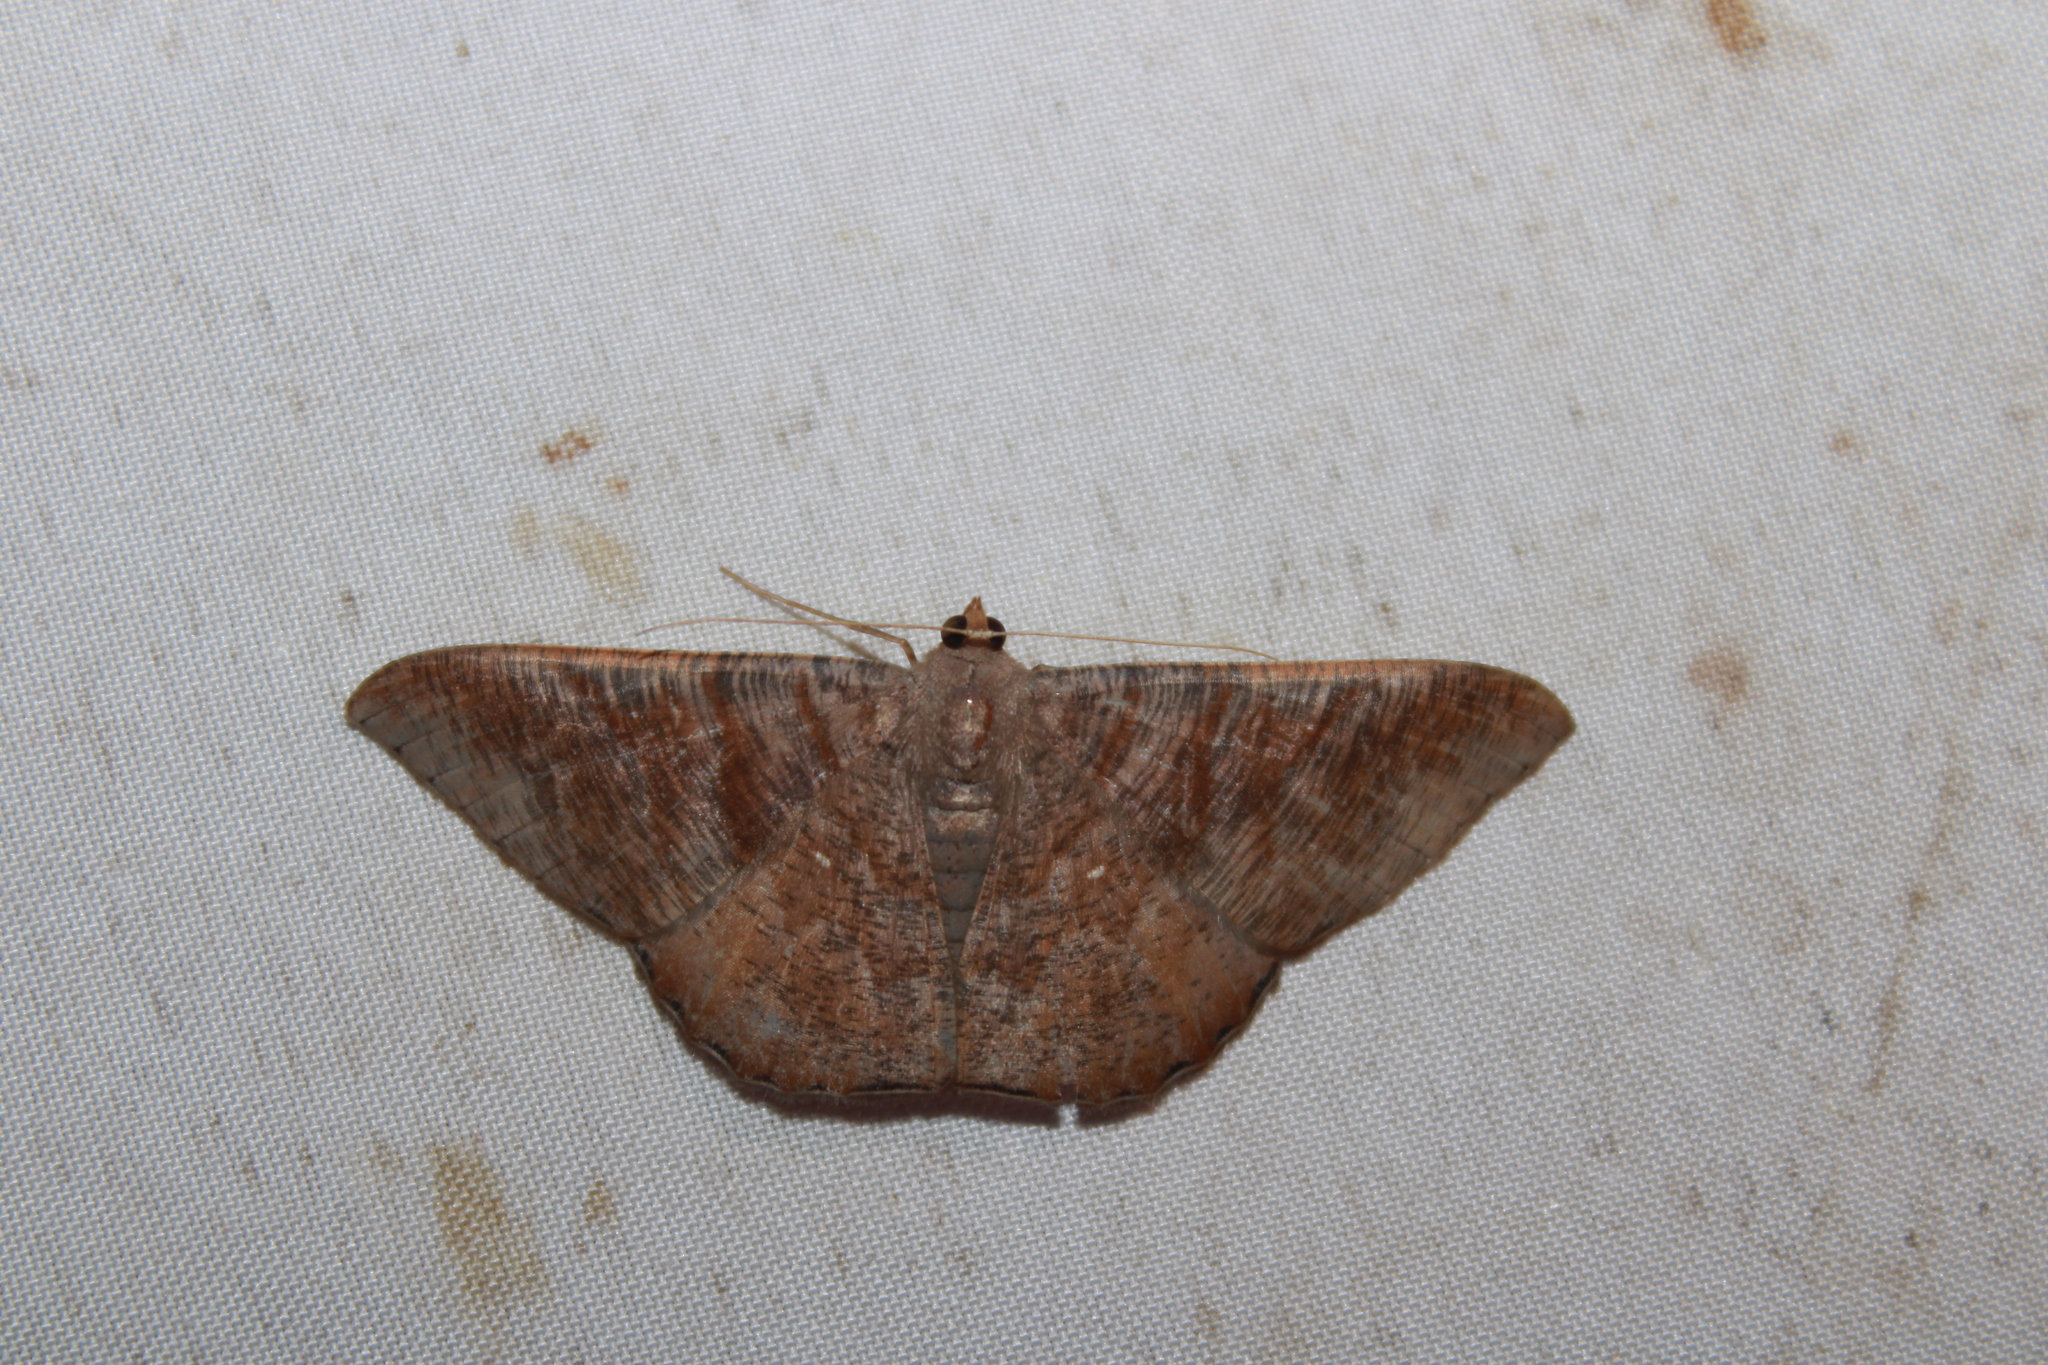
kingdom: Animalia
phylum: Arthropoda
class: Insecta
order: Lepidoptera
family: Geometridae
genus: Sphacelodes
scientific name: Sphacelodes vulneraria
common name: Looper moth
